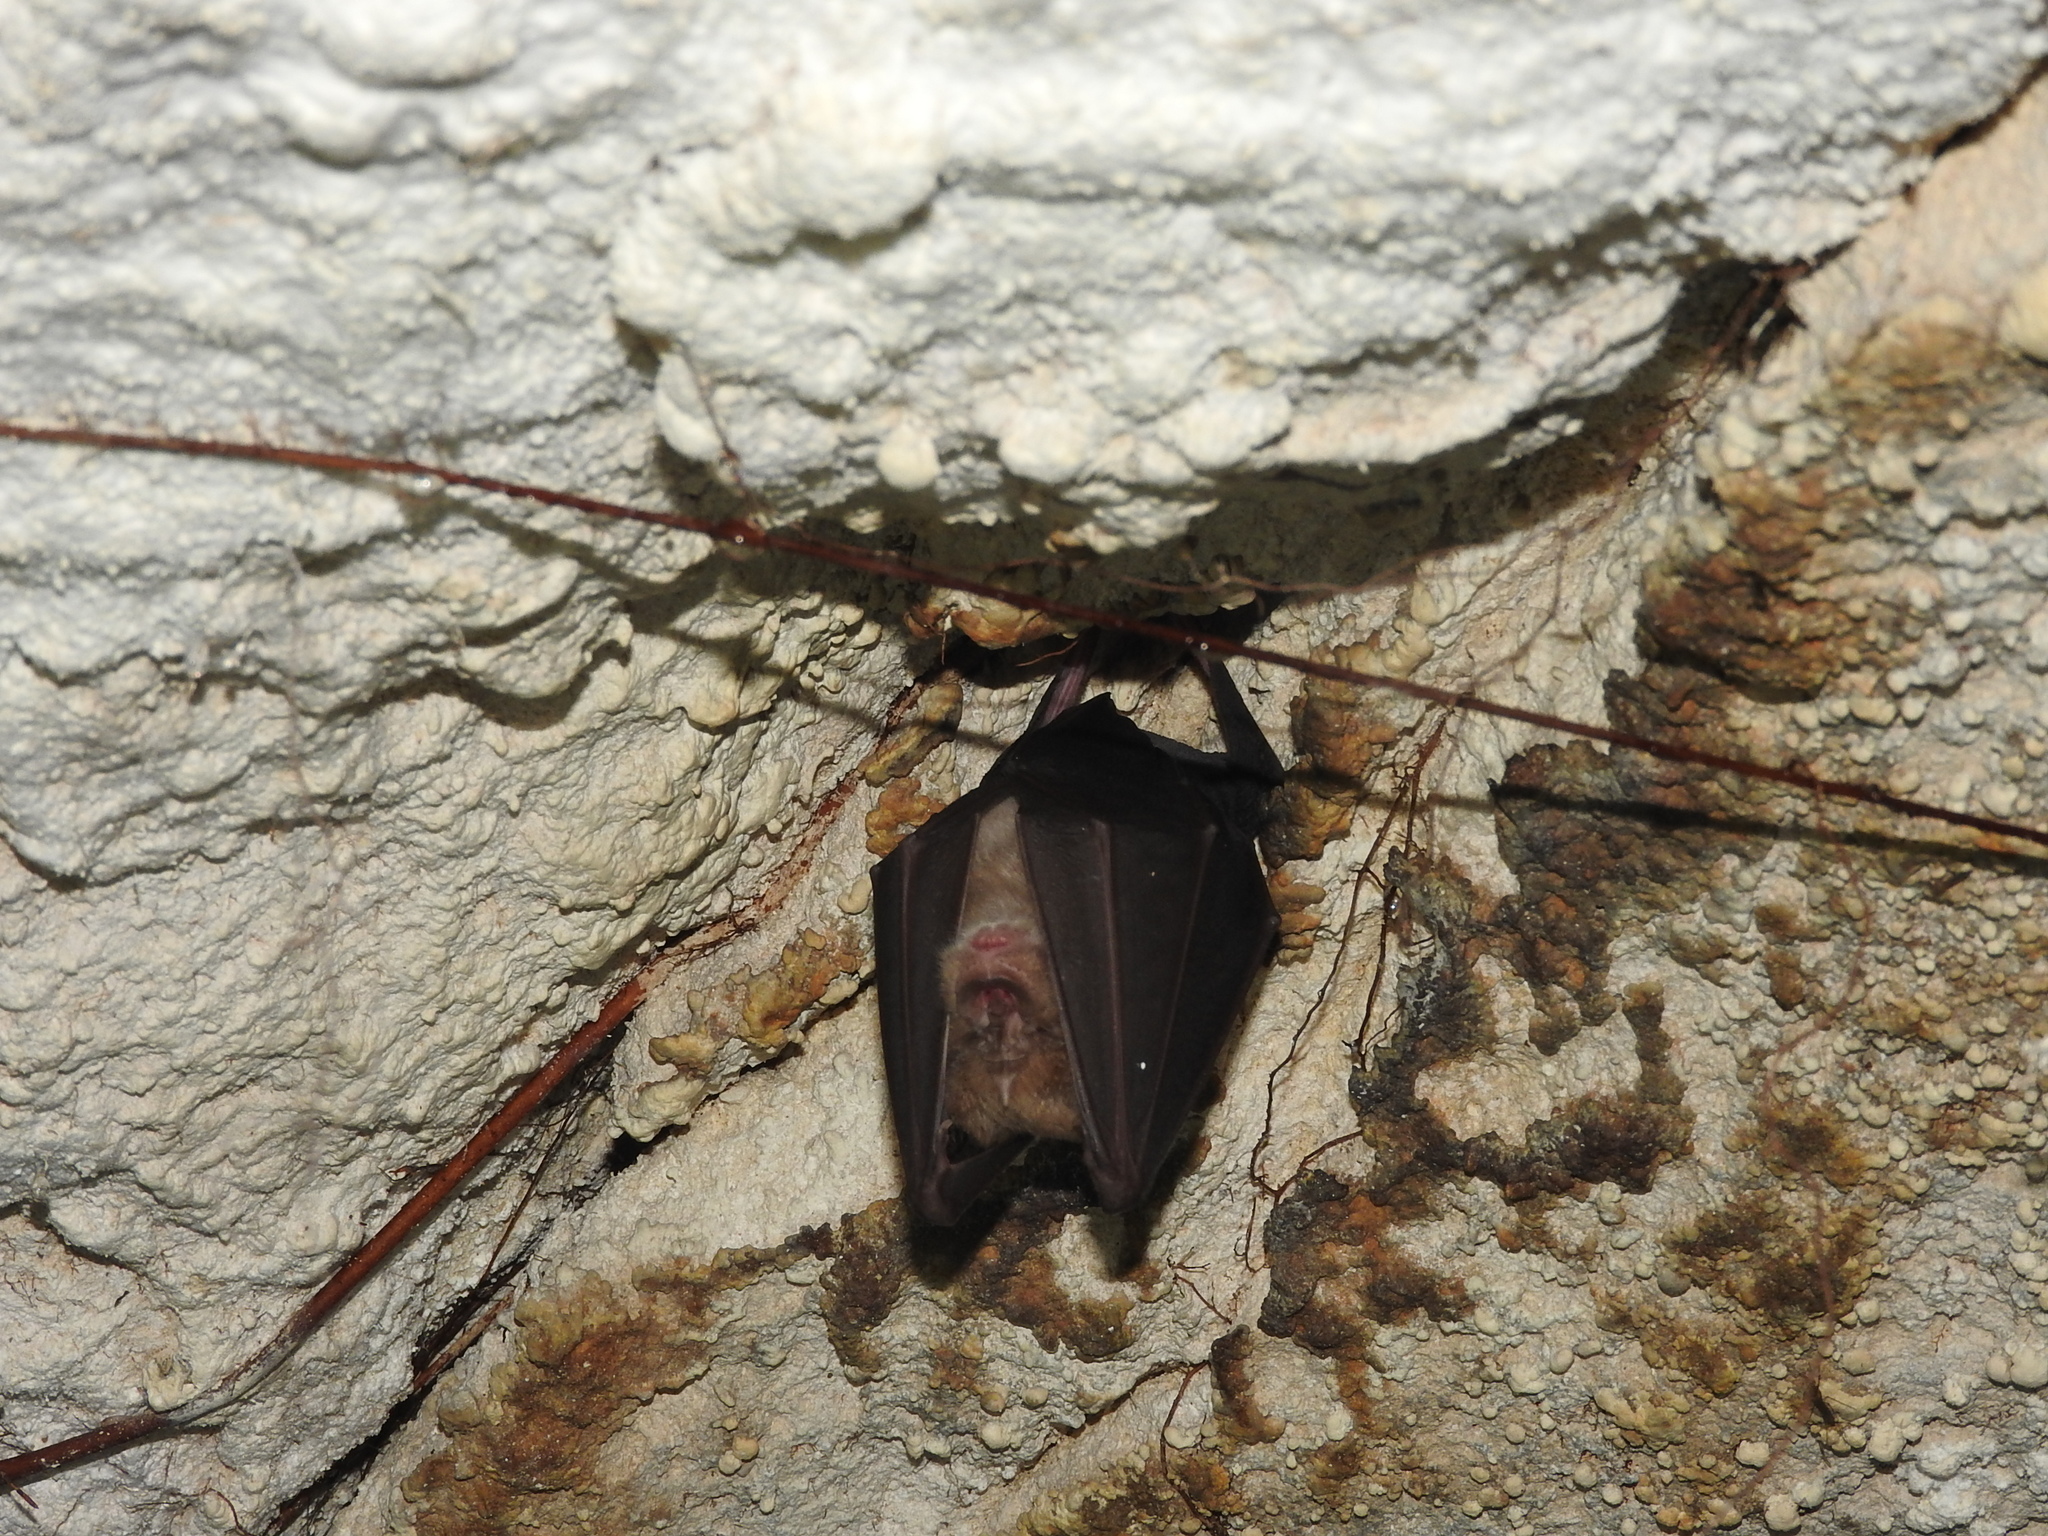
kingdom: Animalia
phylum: Chordata
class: Mammalia
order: Chiroptera
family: Rhinolophidae
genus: Rhinolophus
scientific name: Rhinolophus ferrumequinum
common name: Greater horseshoe bat
